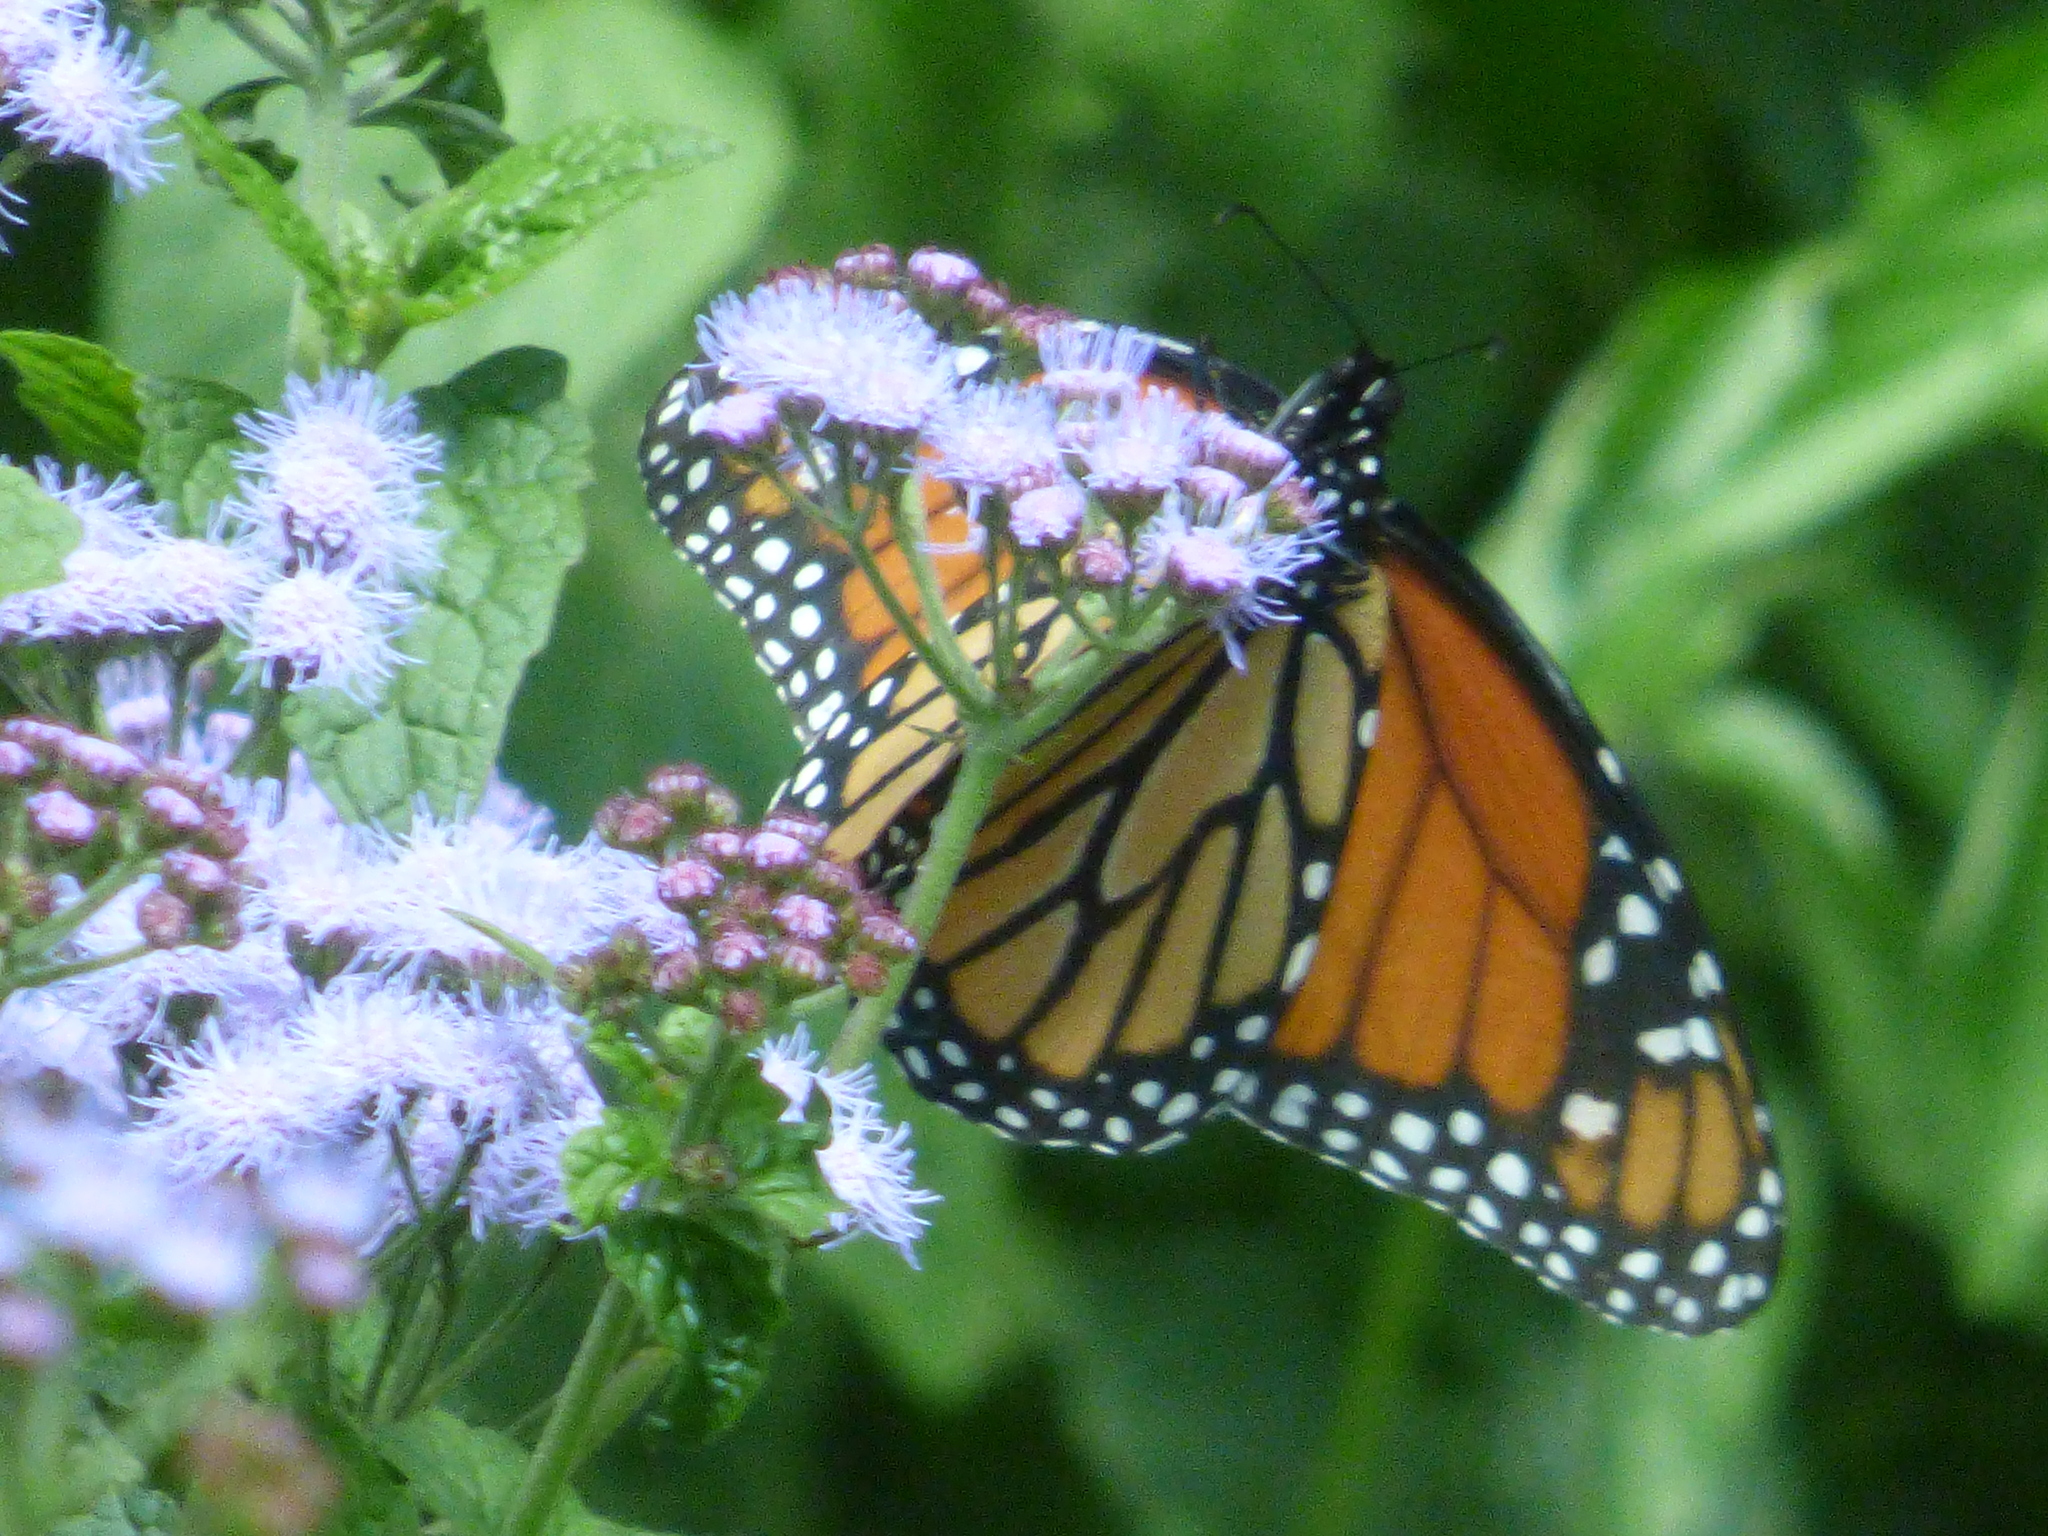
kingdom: Animalia
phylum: Arthropoda
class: Insecta
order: Lepidoptera
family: Nymphalidae
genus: Danaus
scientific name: Danaus plexippus
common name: Monarch
